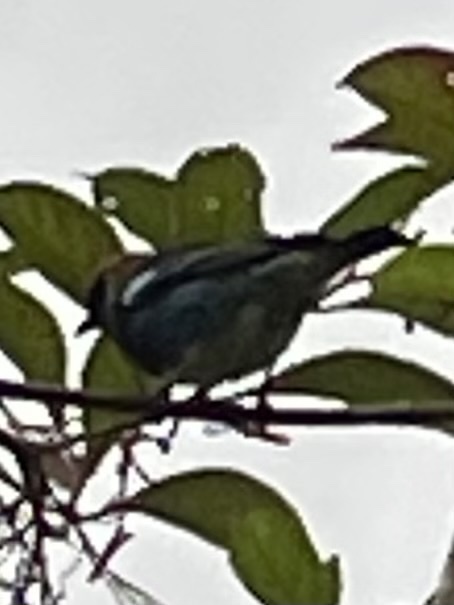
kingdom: Animalia
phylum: Chordata
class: Aves
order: Passeriformes
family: Thraupidae
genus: Stilpnia
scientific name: Stilpnia larvata
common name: Golden-hooded tanager
